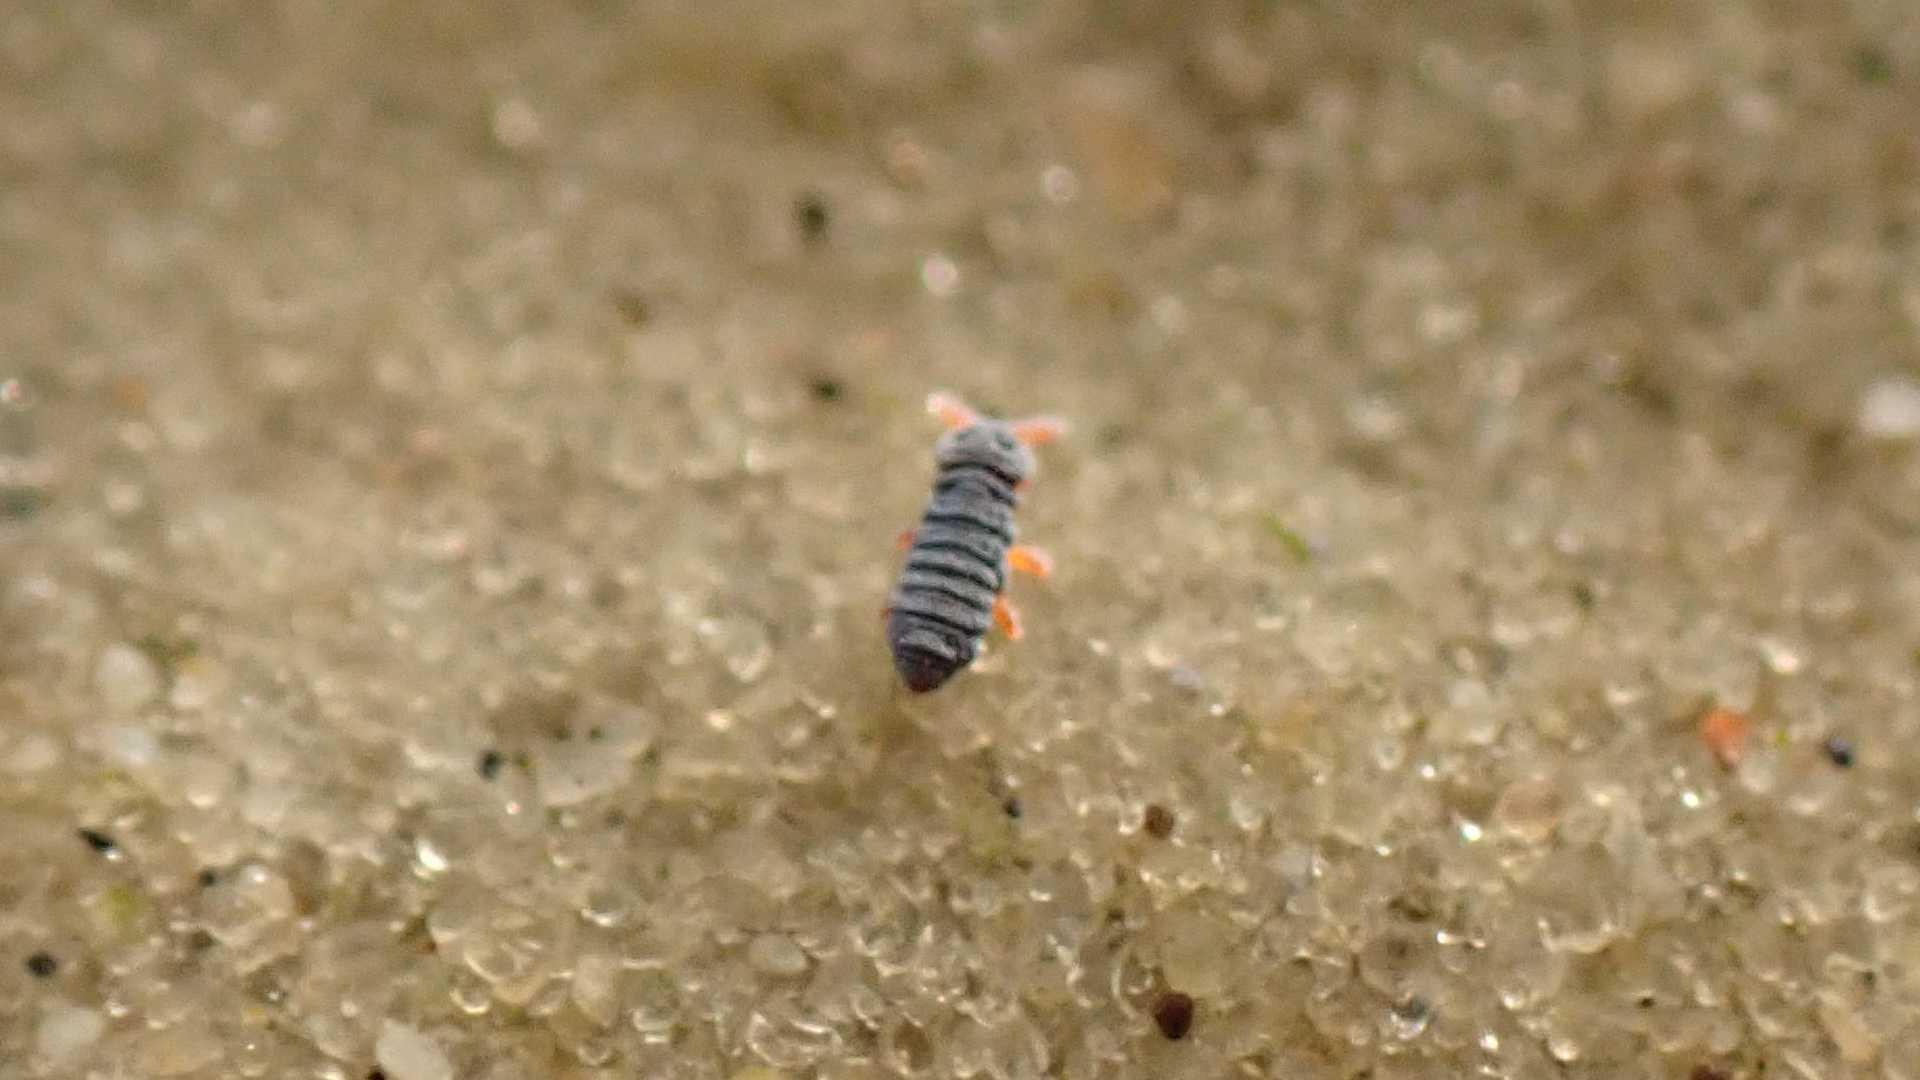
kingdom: Animalia
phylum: Arthropoda
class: Collembola
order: Poduromorpha
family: Poduridae
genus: Podura
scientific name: Podura aquatica
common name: Water springtail
